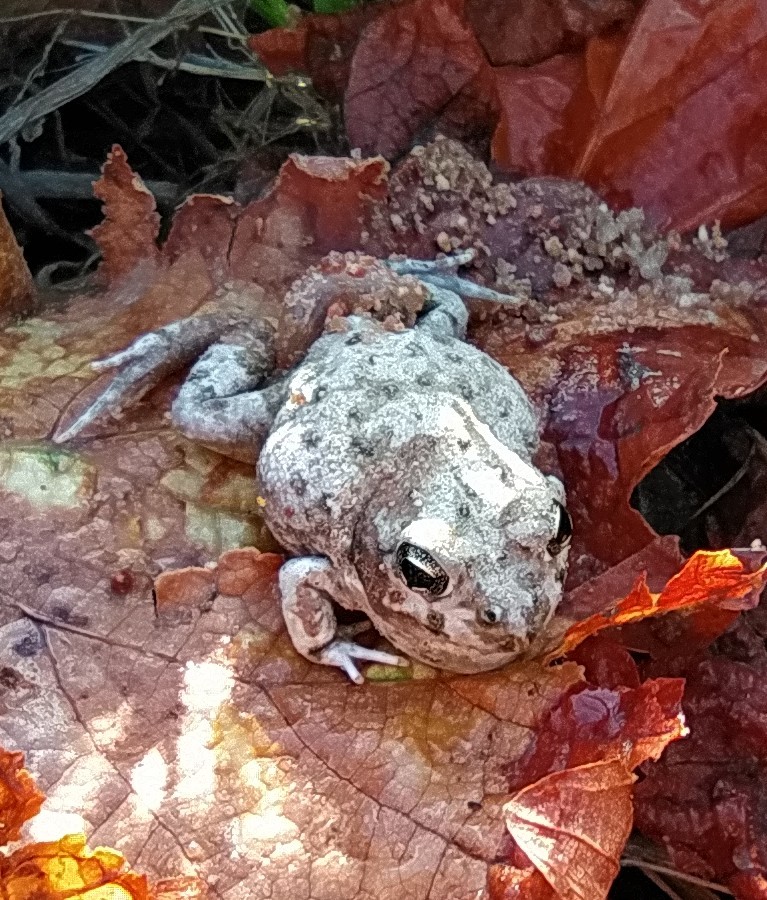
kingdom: Animalia
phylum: Chordata
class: Amphibia
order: Anura
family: Pyxicephalidae
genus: Tomopterna
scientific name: Tomopterna delalandii
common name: Delalande's burrowing bullfrog
